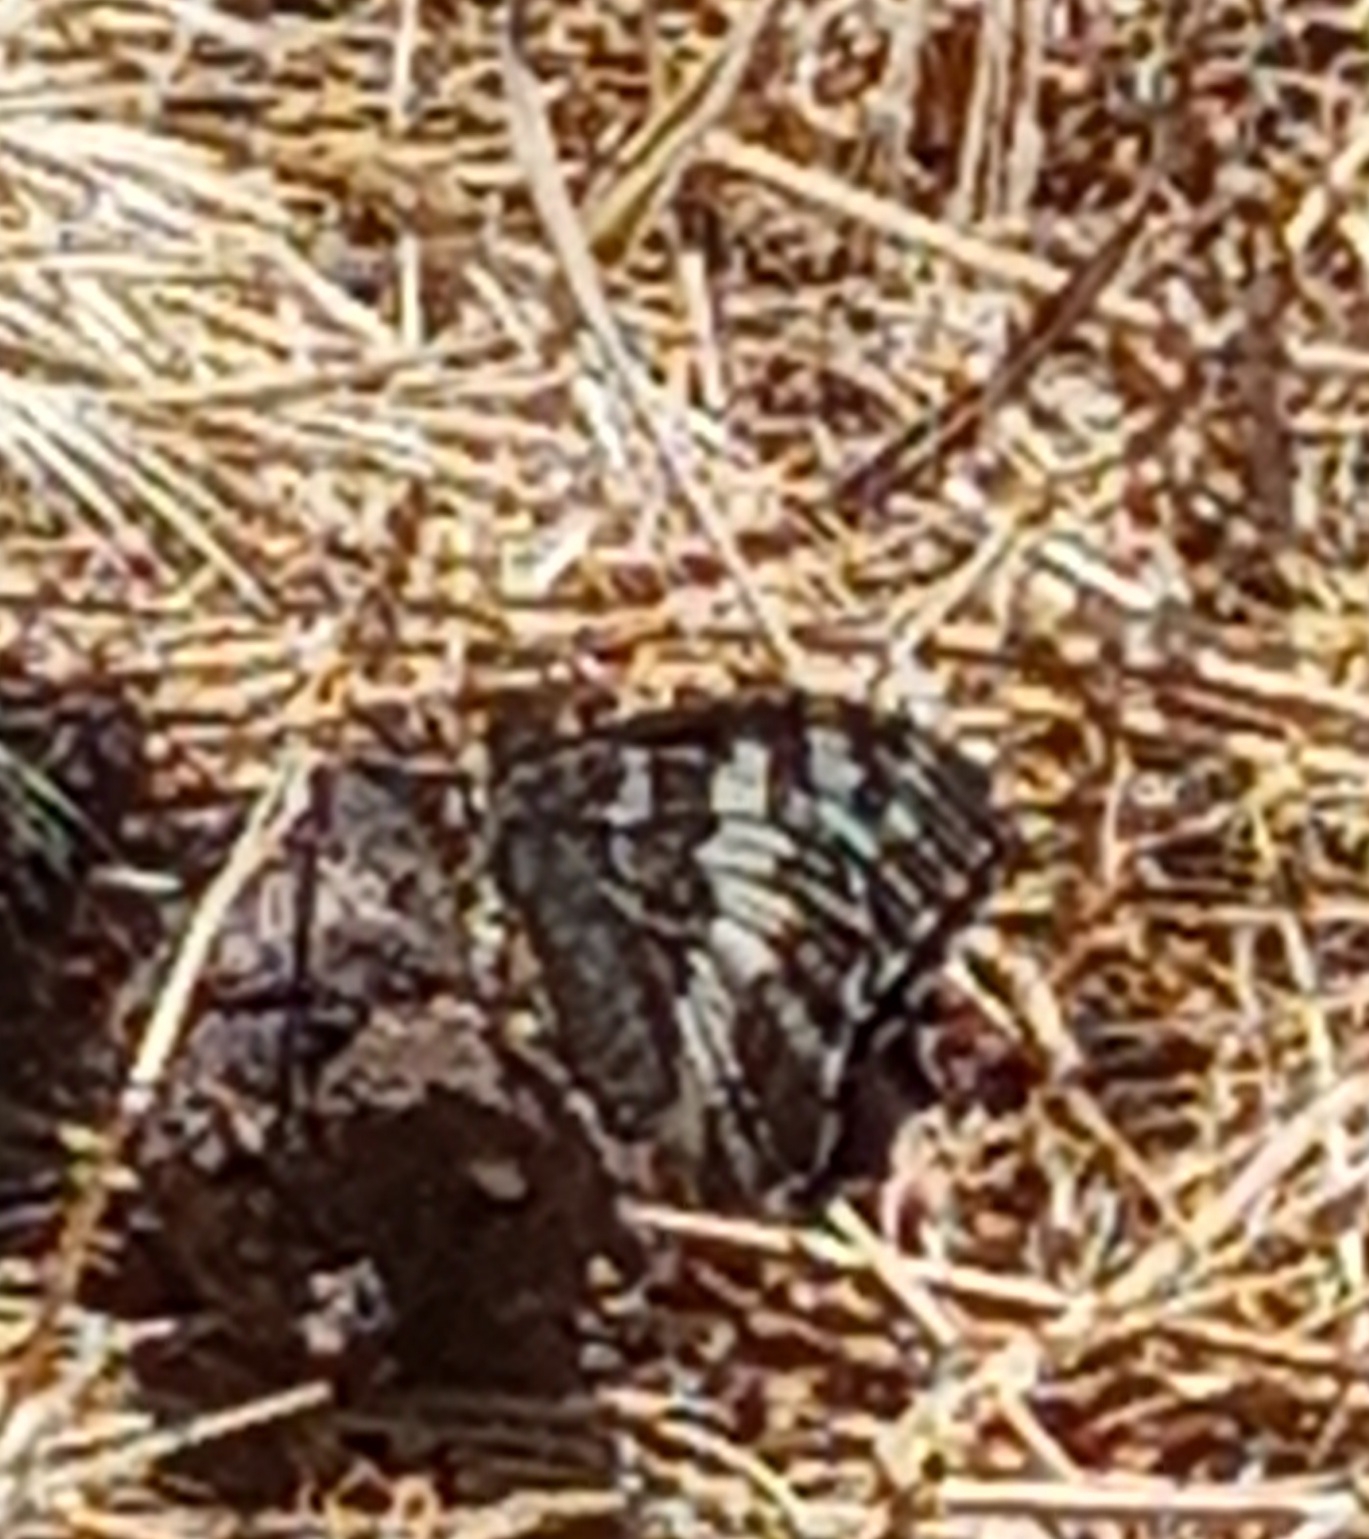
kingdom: Animalia
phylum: Arthropoda
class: Insecta
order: Lepidoptera
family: Lycaenidae
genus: Loweia
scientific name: Loweia tityrus
